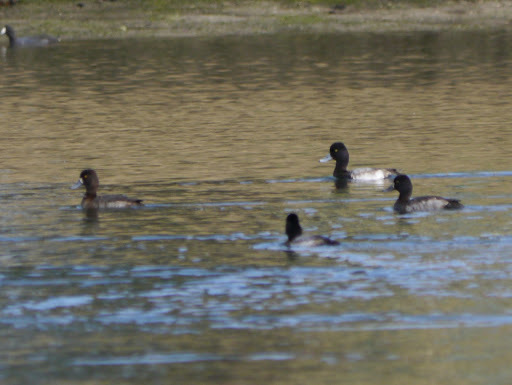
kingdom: Animalia
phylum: Chordata
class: Aves
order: Anseriformes
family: Anatidae
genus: Aythya
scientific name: Aythya affinis
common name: Lesser scaup
